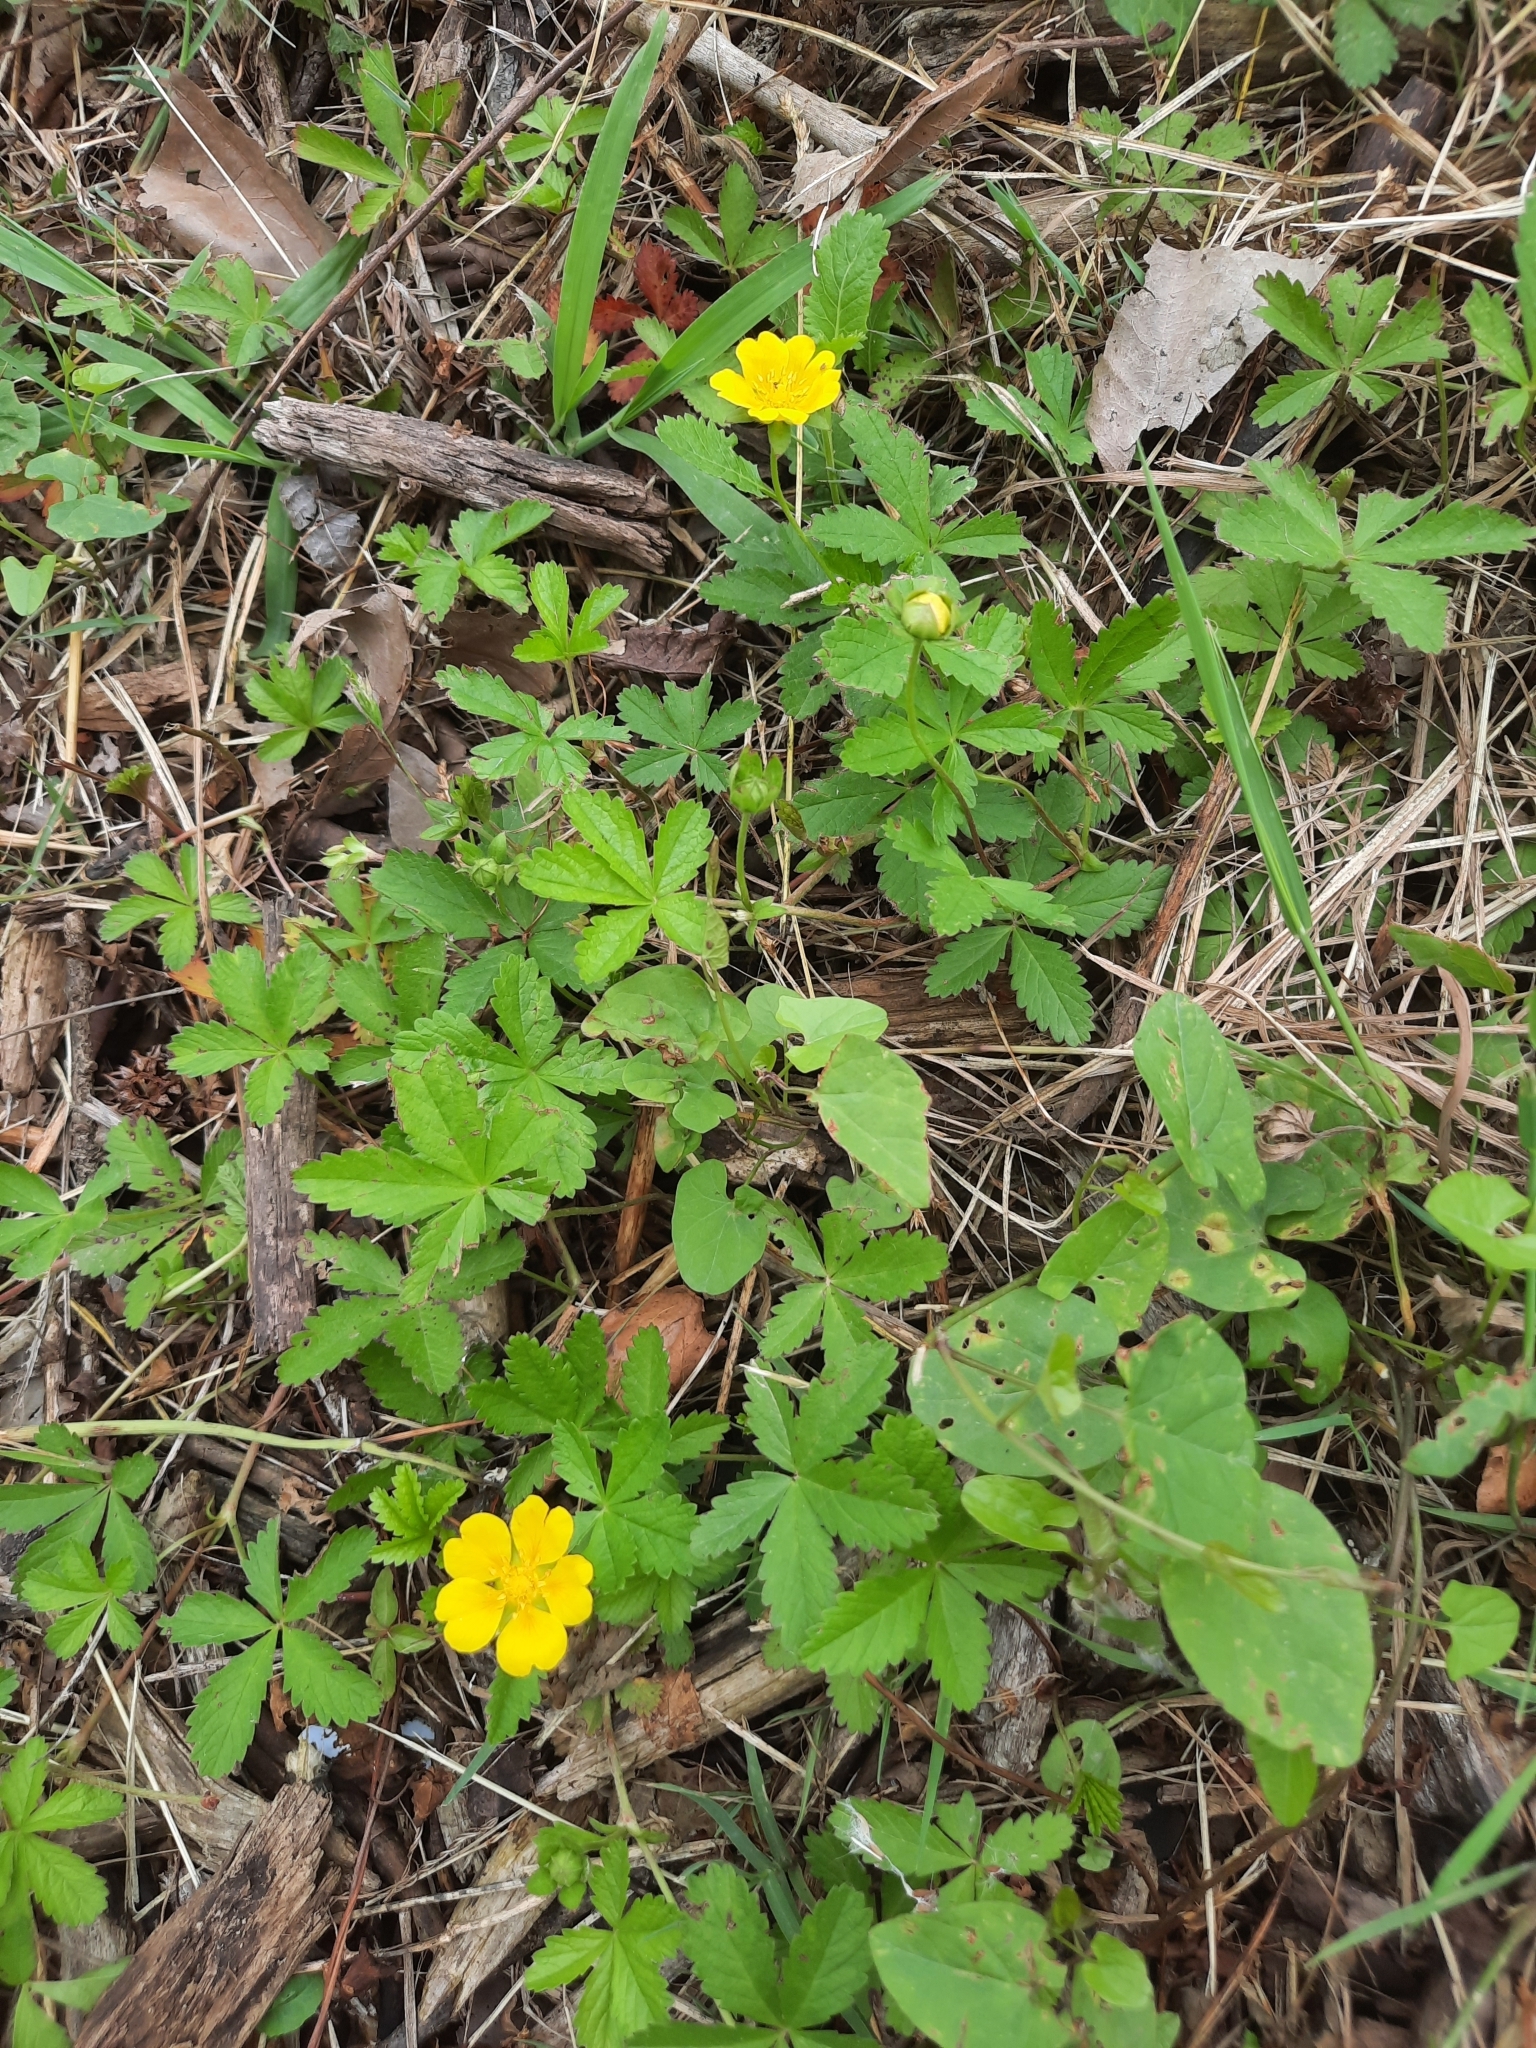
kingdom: Plantae
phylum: Tracheophyta
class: Magnoliopsida
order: Rosales
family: Rosaceae
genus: Potentilla
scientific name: Potentilla reptans
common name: Creeping cinquefoil
